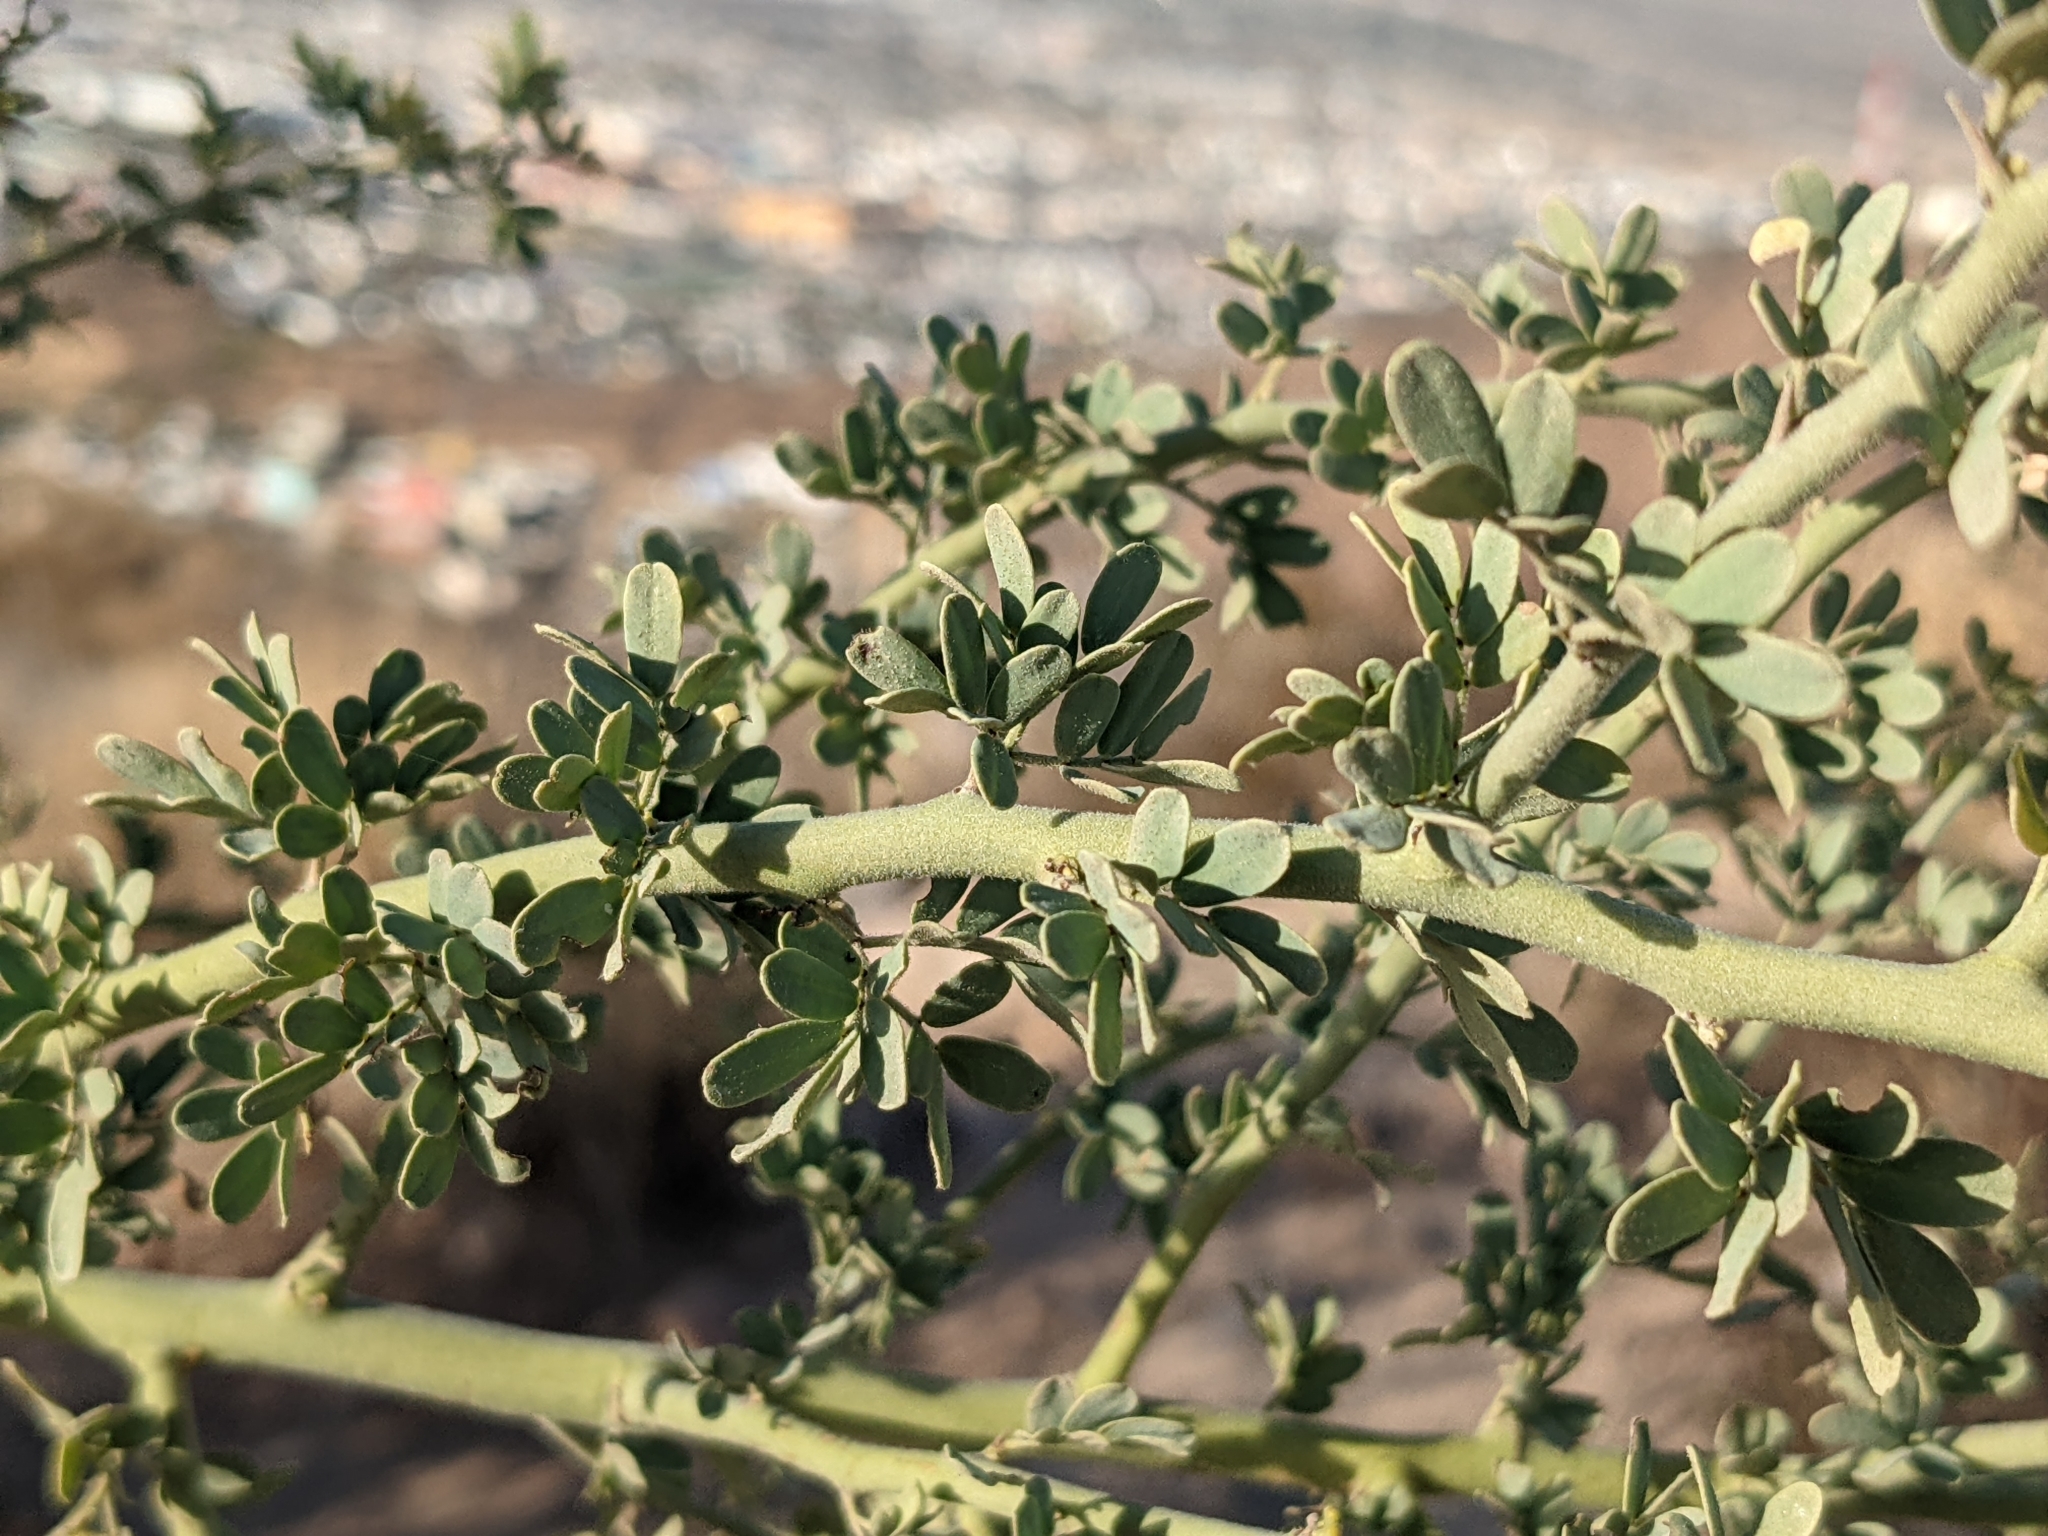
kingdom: Plantae
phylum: Tracheophyta
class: Magnoliopsida
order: Fabales
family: Fabaceae
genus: Parkinsonia
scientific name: Parkinsonia florida
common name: Blue paloverde
